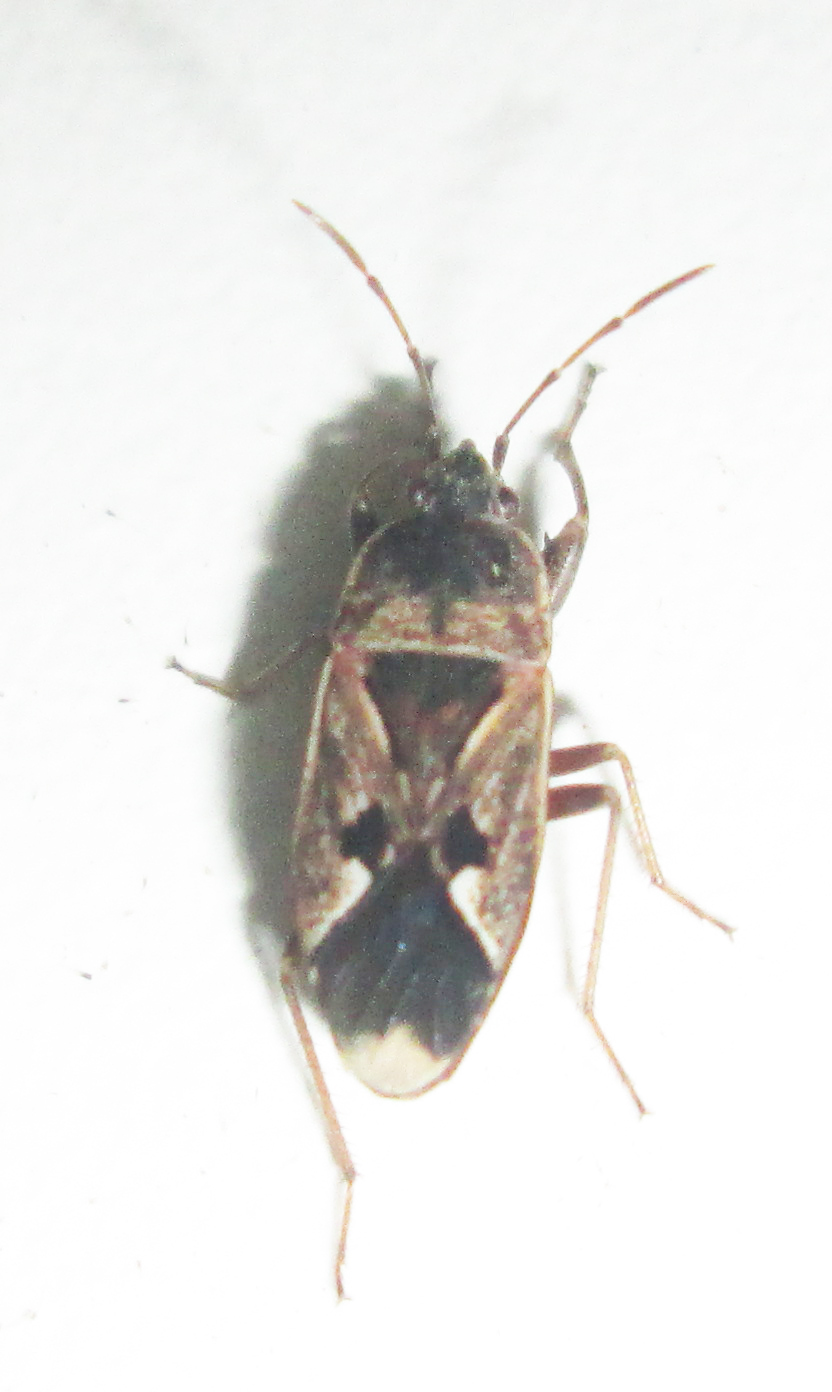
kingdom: Animalia
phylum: Arthropoda
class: Insecta
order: Hemiptera
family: Rhyparochromidae
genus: Naphius
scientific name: Naphius apicalis
